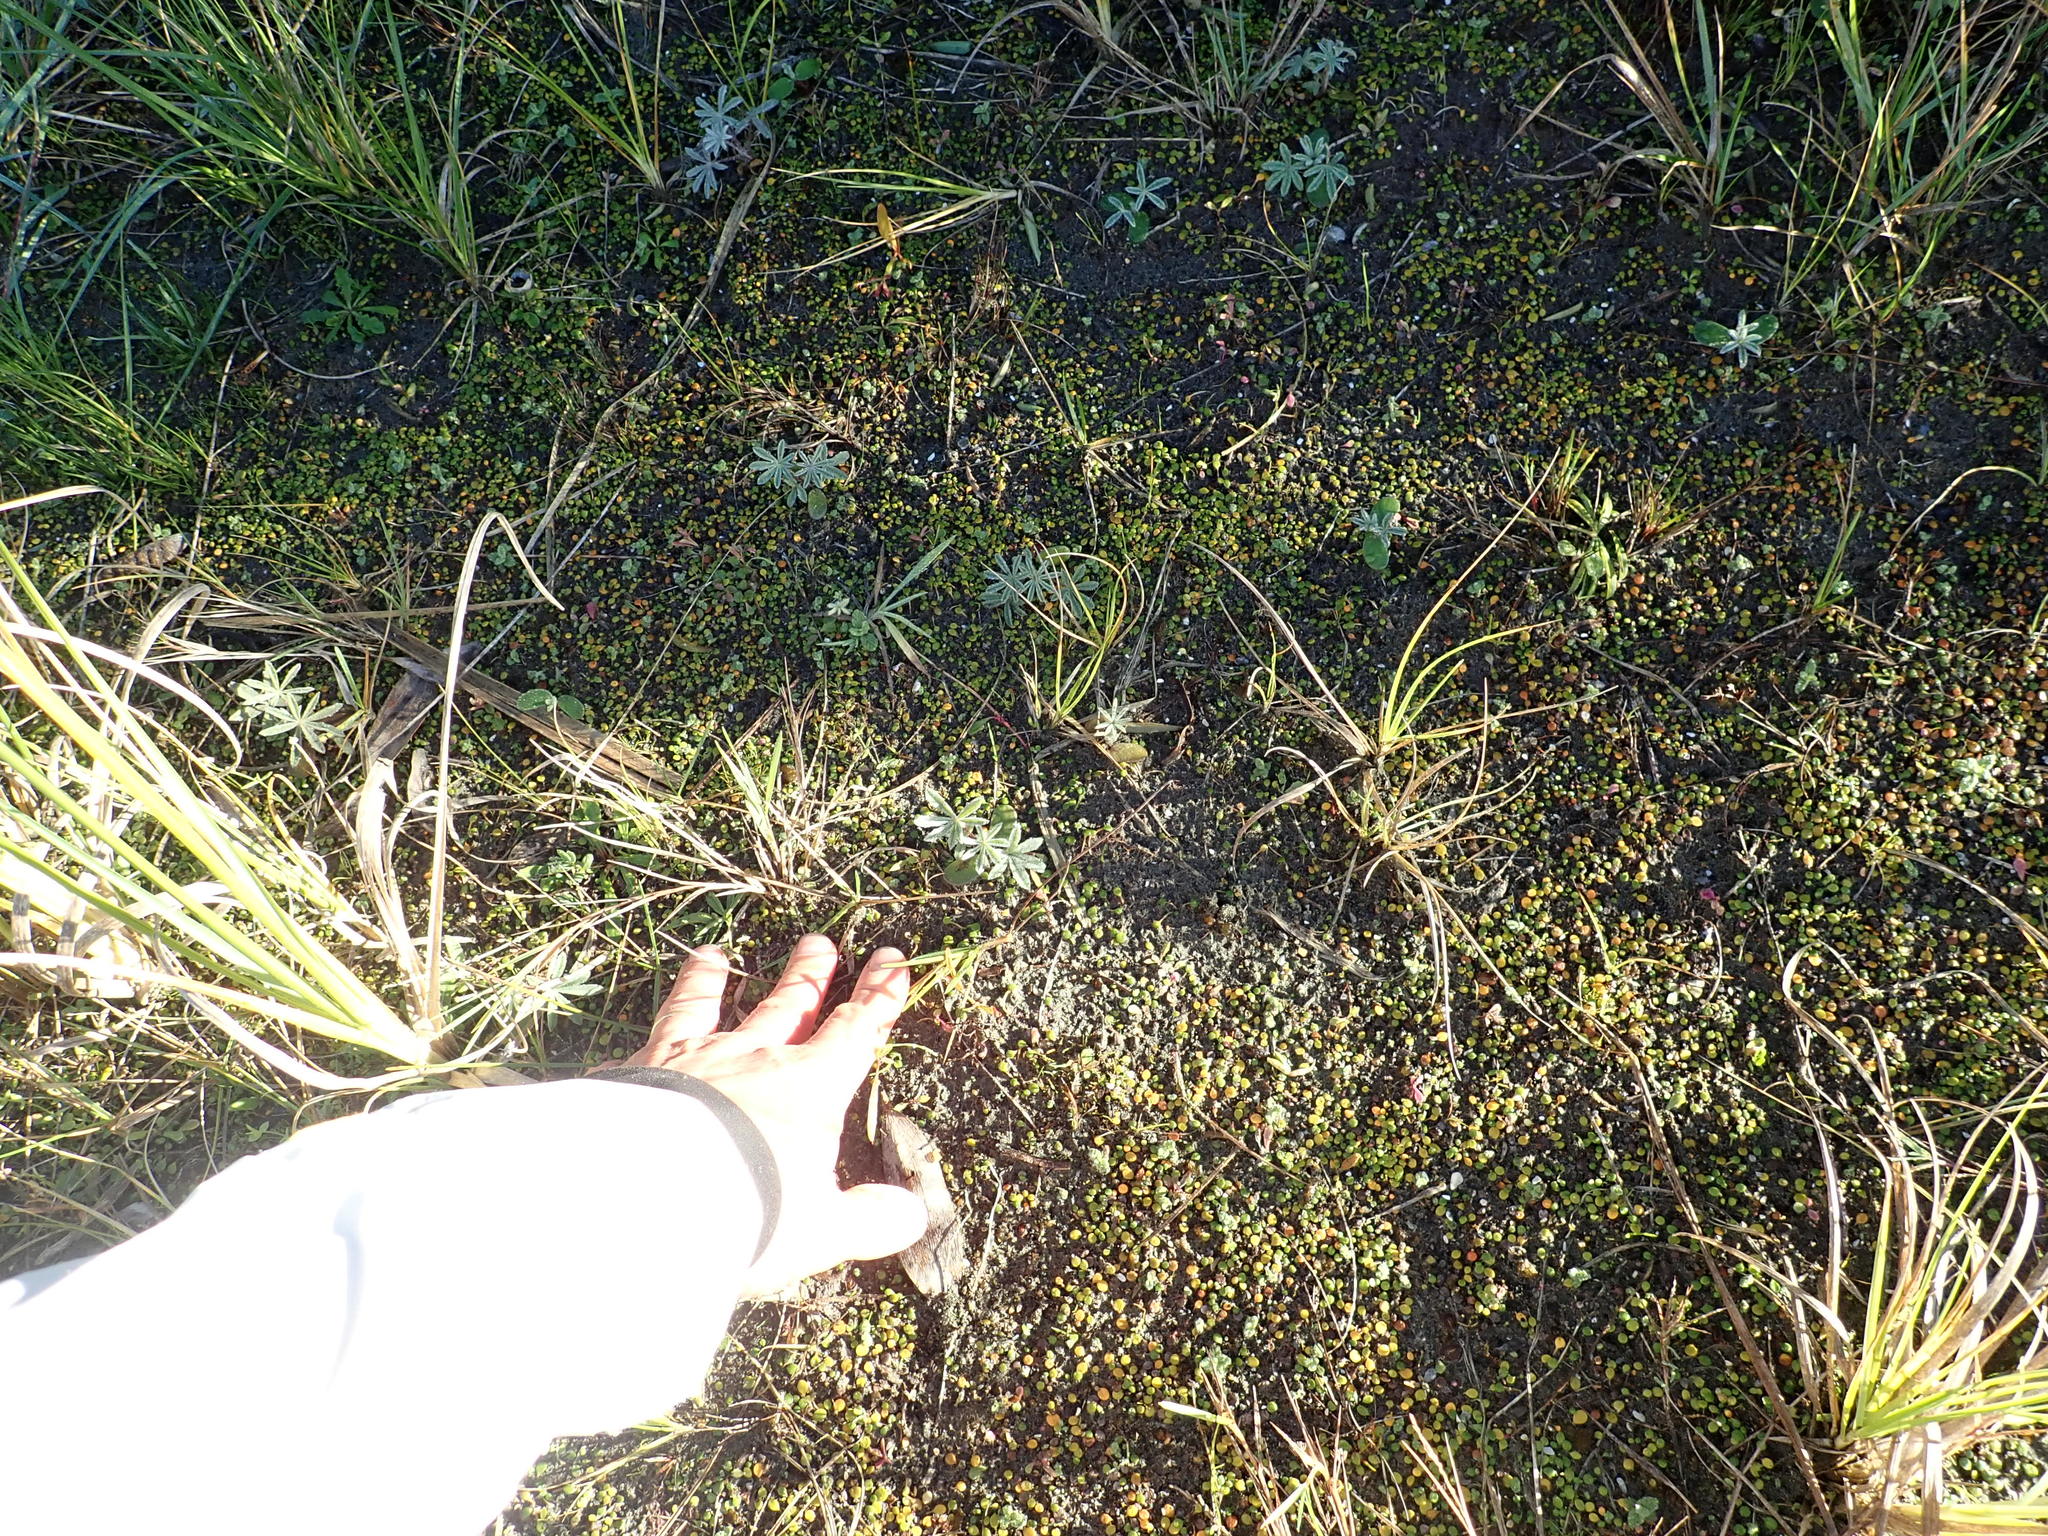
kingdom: Plantae
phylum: Tracheophyta
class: Magnoliopsida
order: Fabales
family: Fabaceae
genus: Lupinus
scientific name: Lupinus arboreus
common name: Yellow bush lupine
